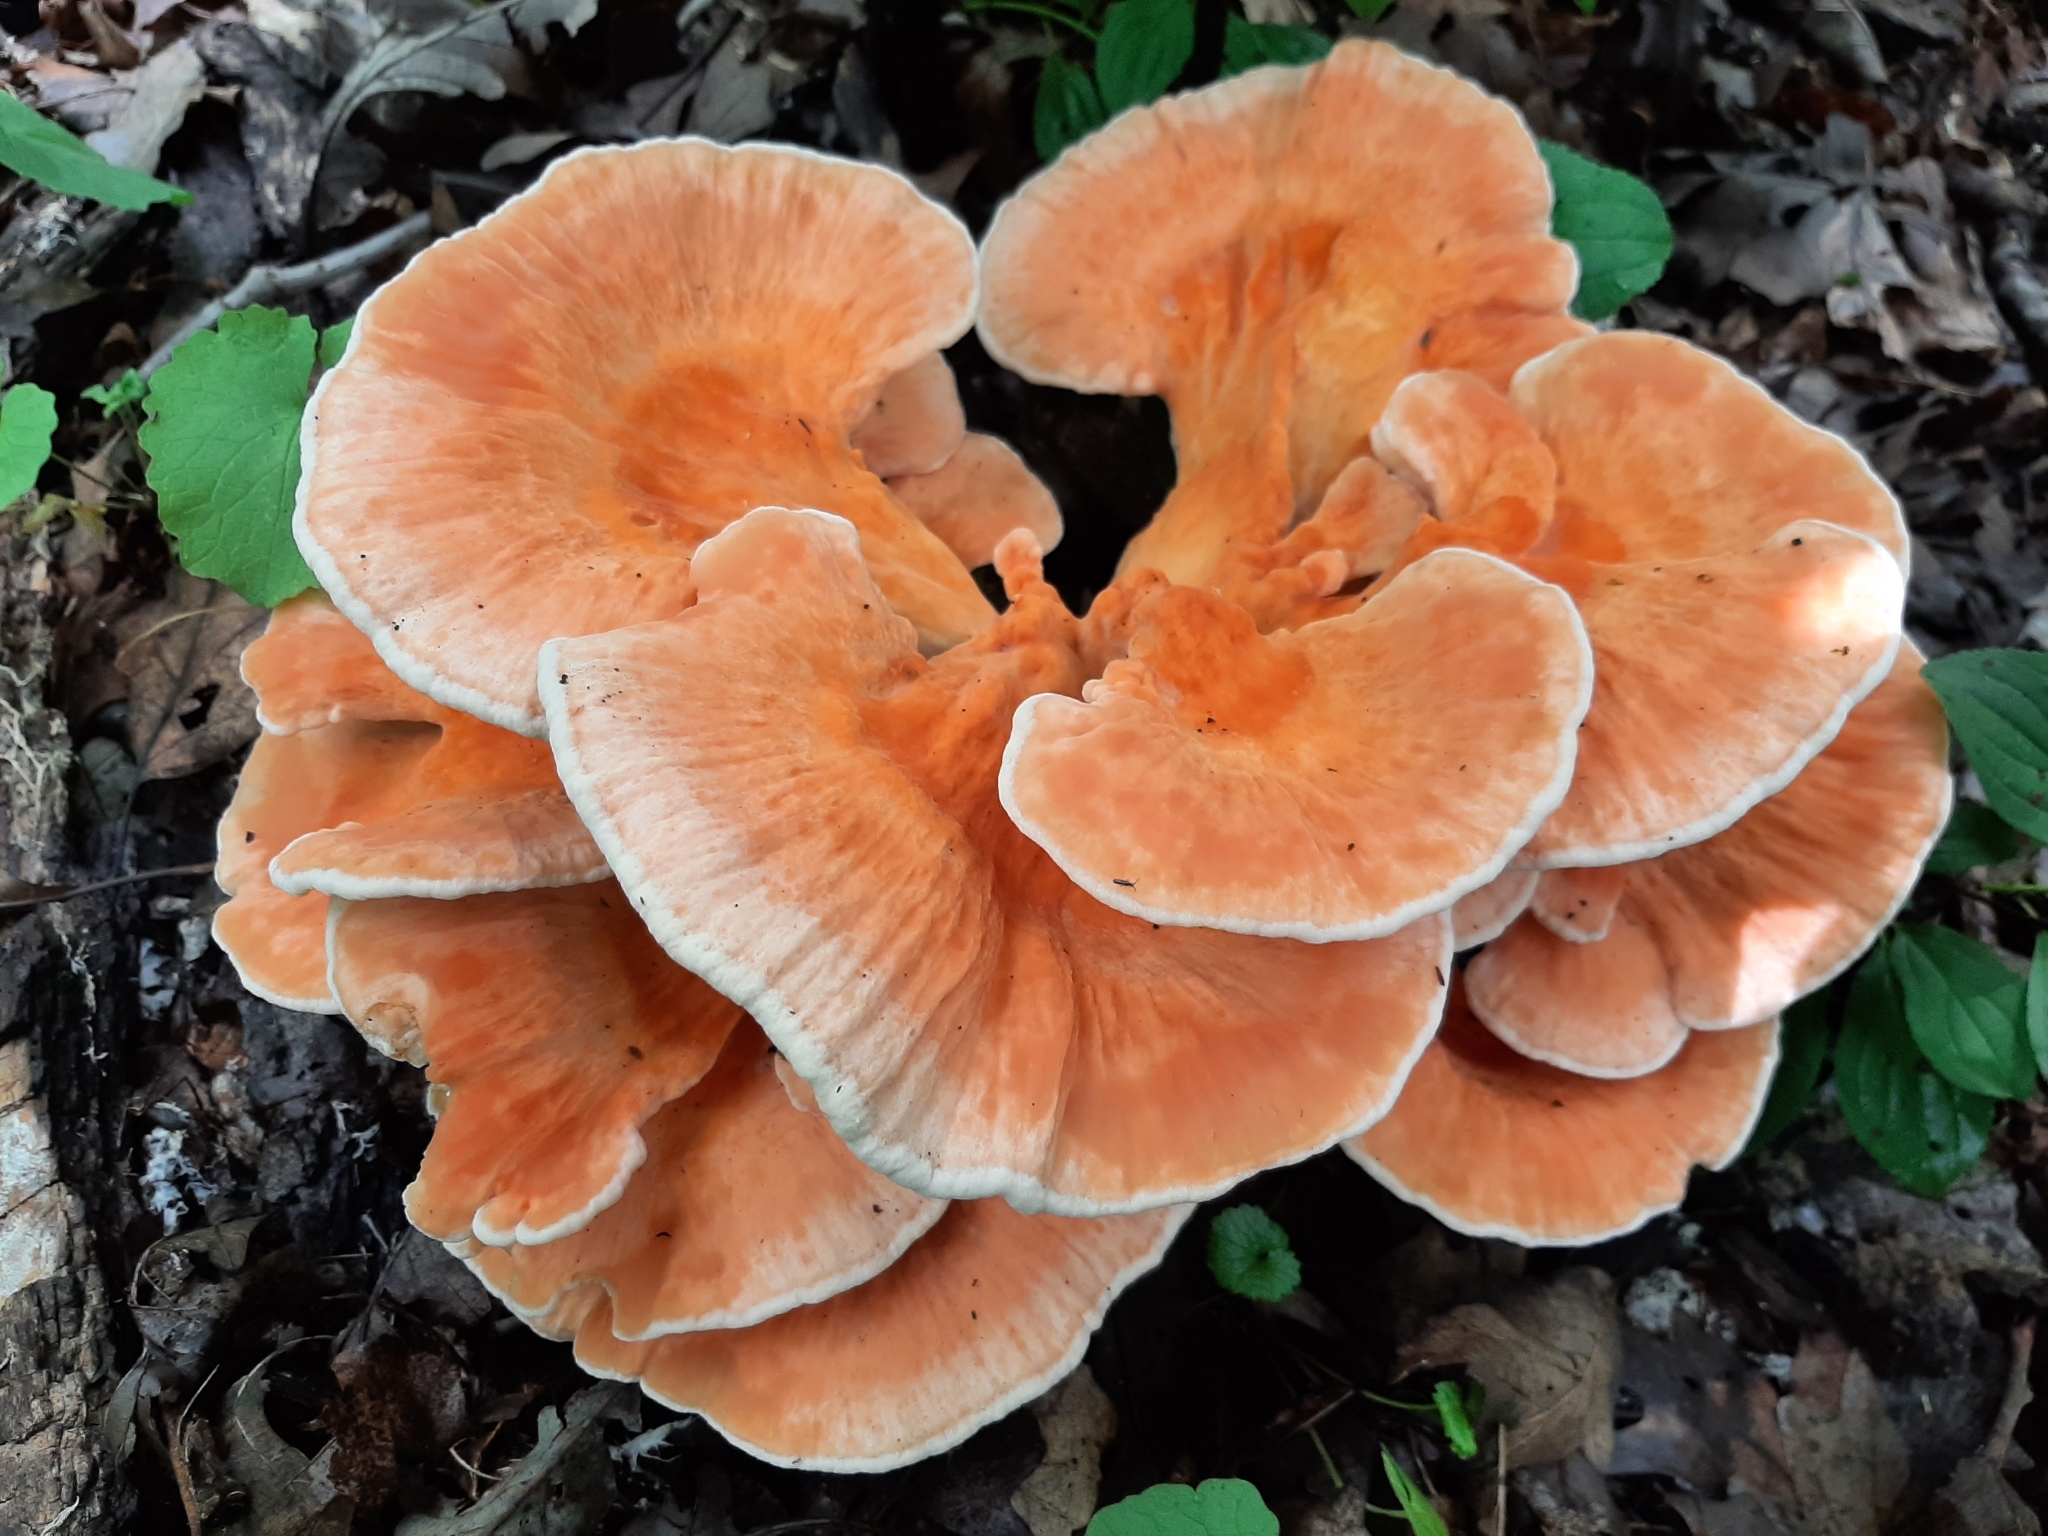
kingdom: Fungi
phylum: Basidiomycota
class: Agaricomycetes
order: Polyporales
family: Laetiporaceae
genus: Laetiporus
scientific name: Laetiporus sulphureus
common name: Chicken of the woods
